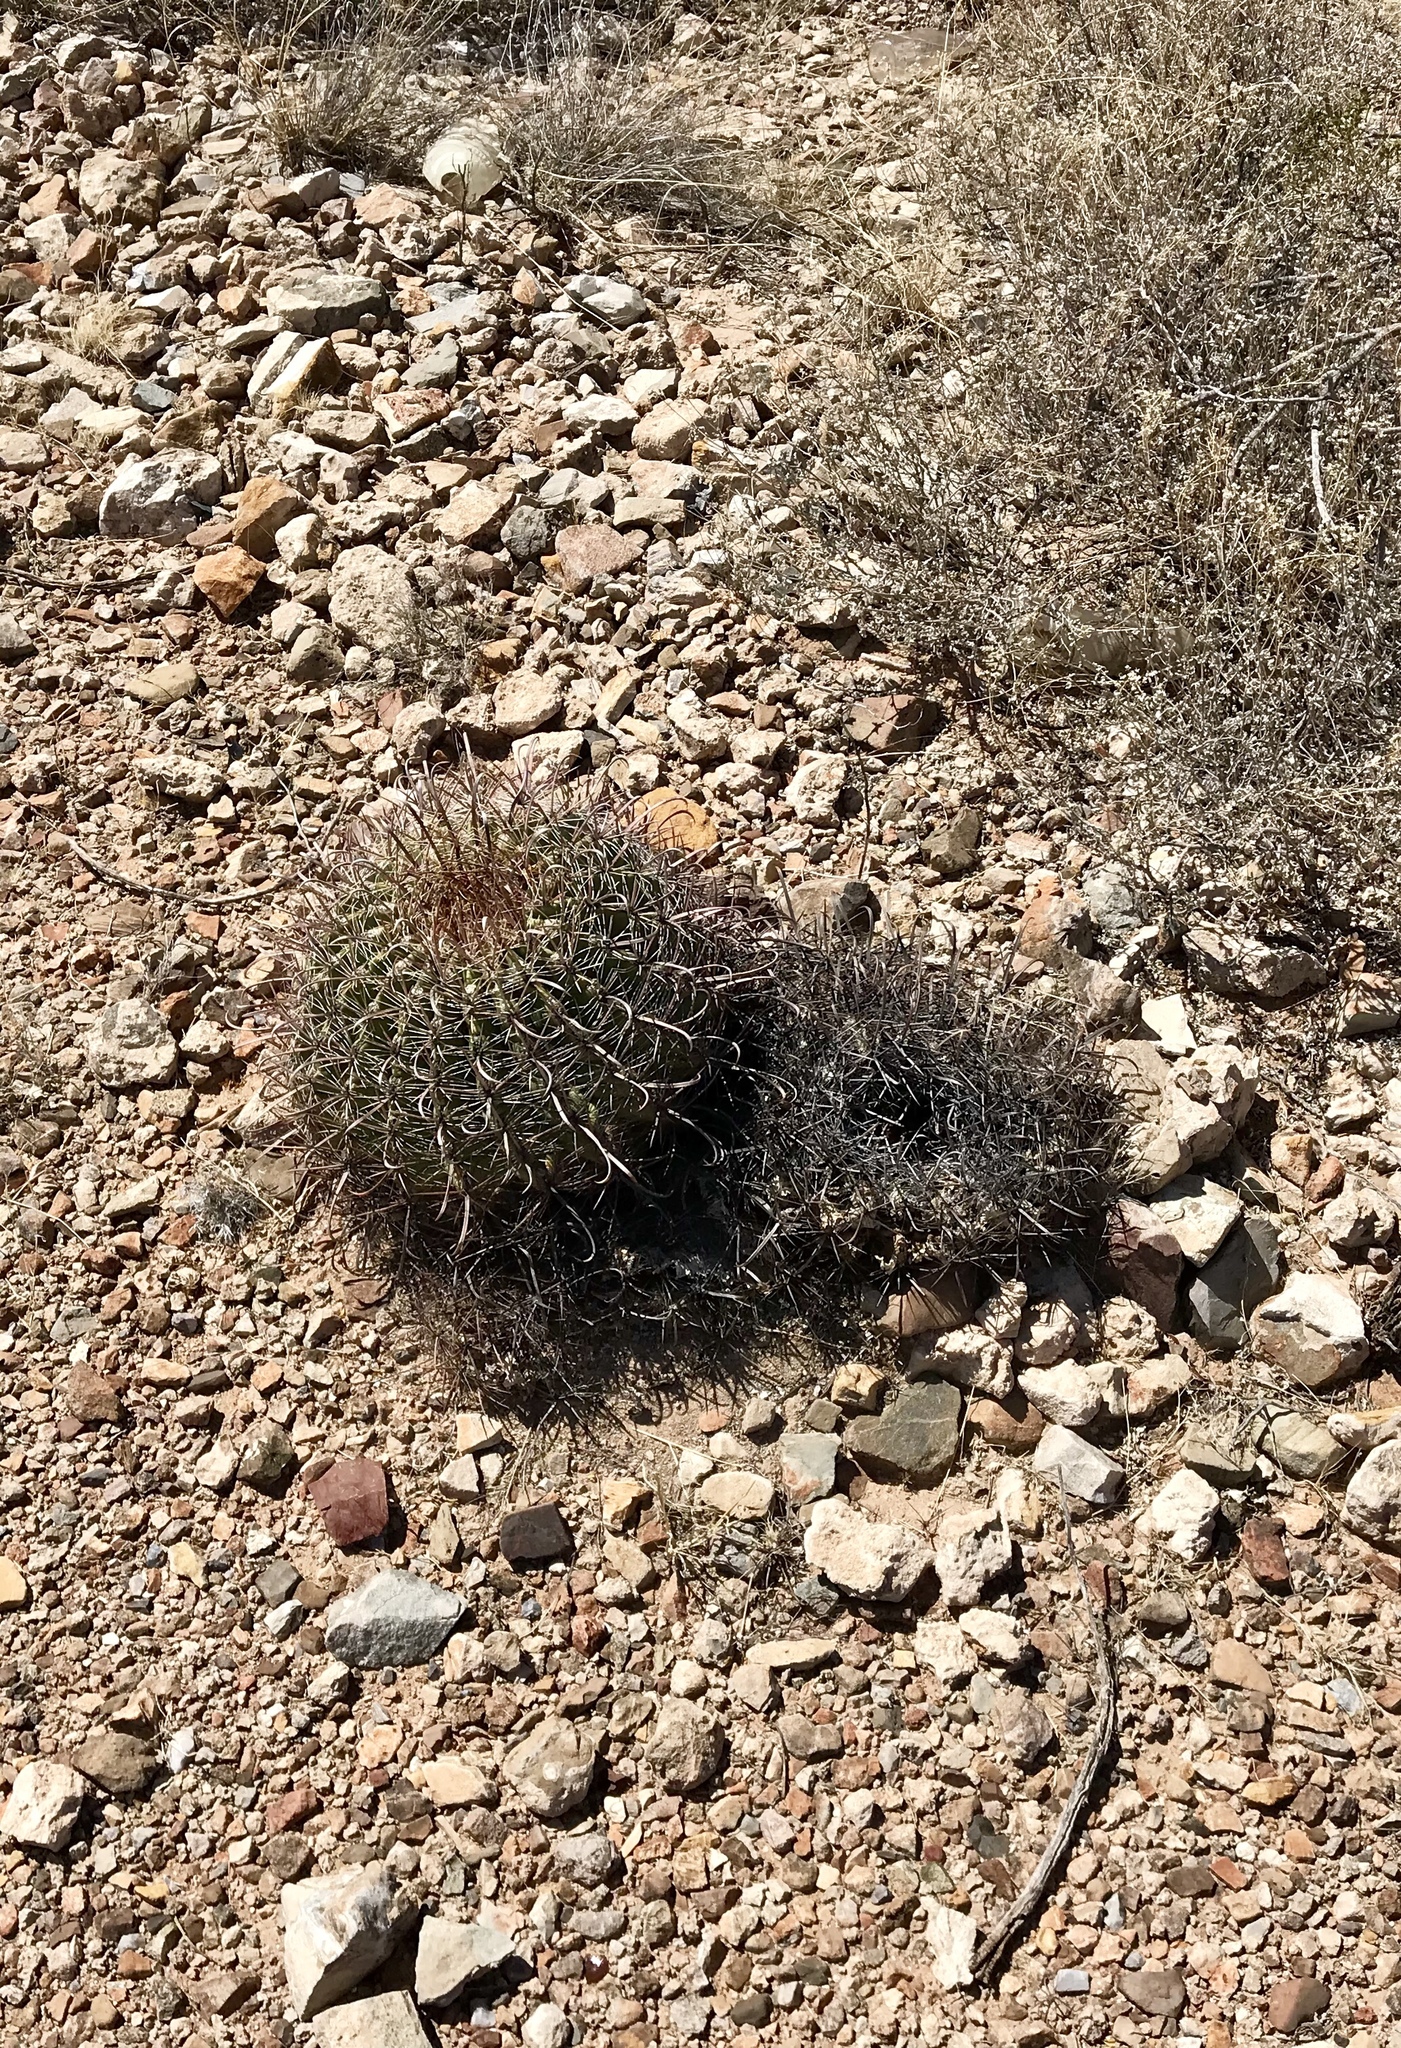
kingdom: Plantae
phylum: Tracheophyta
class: Magnoliopsida
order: Caryophyllales
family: Cactaceae
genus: Ferocactus
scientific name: Ferocactus wislizeni
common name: Candy barrel cactus
